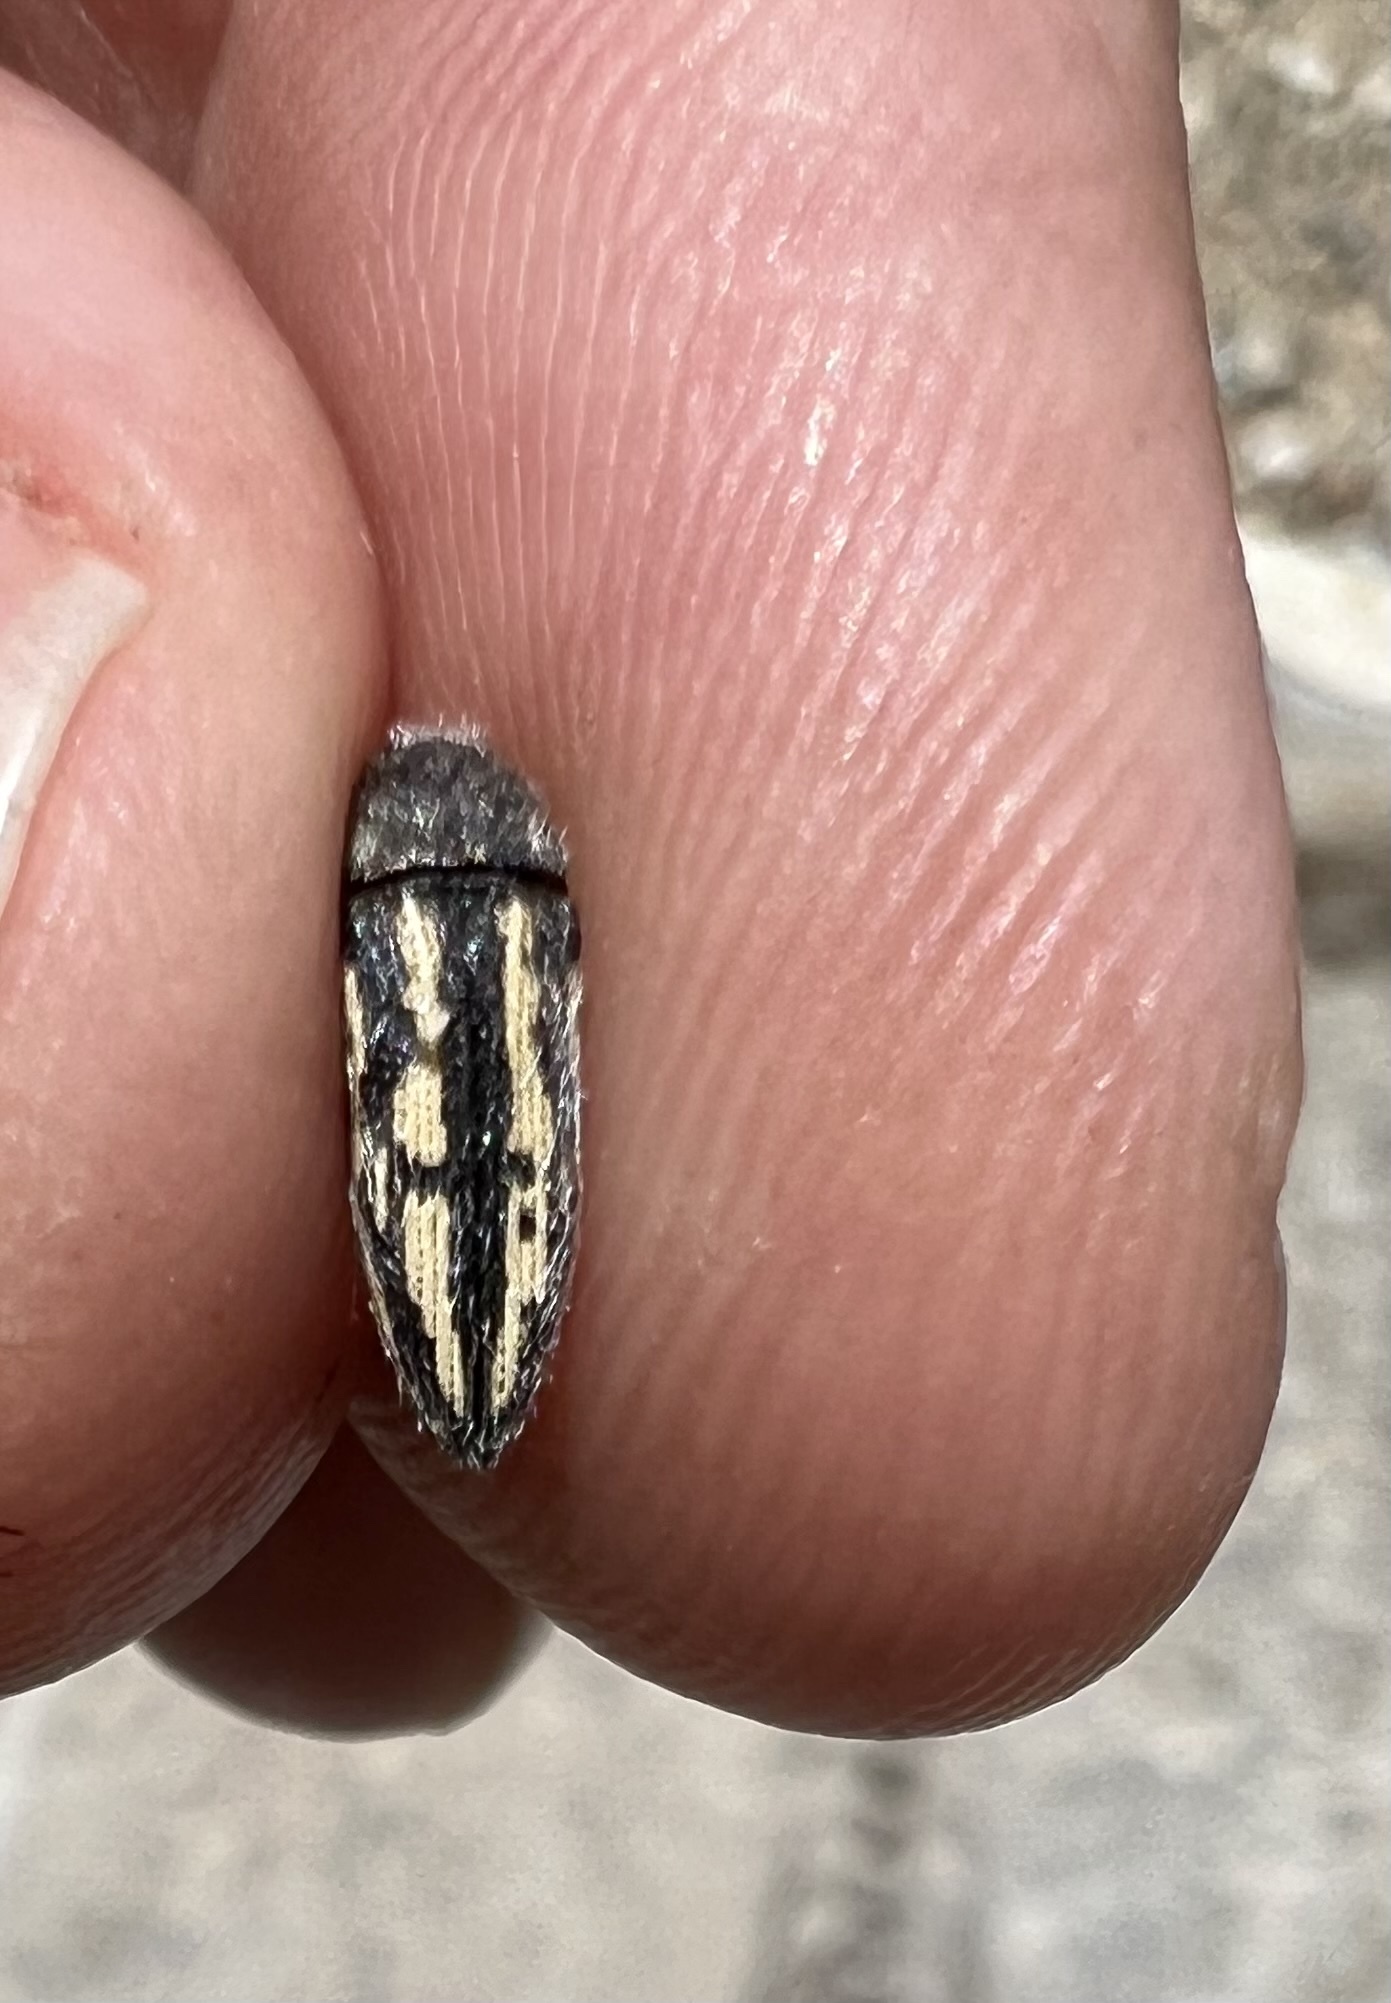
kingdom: Animalia
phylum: Arthropoda
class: Insecta
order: Coleoptera
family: Buprestidae
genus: Acmaeodera
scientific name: Acmaeodera pubiventris
